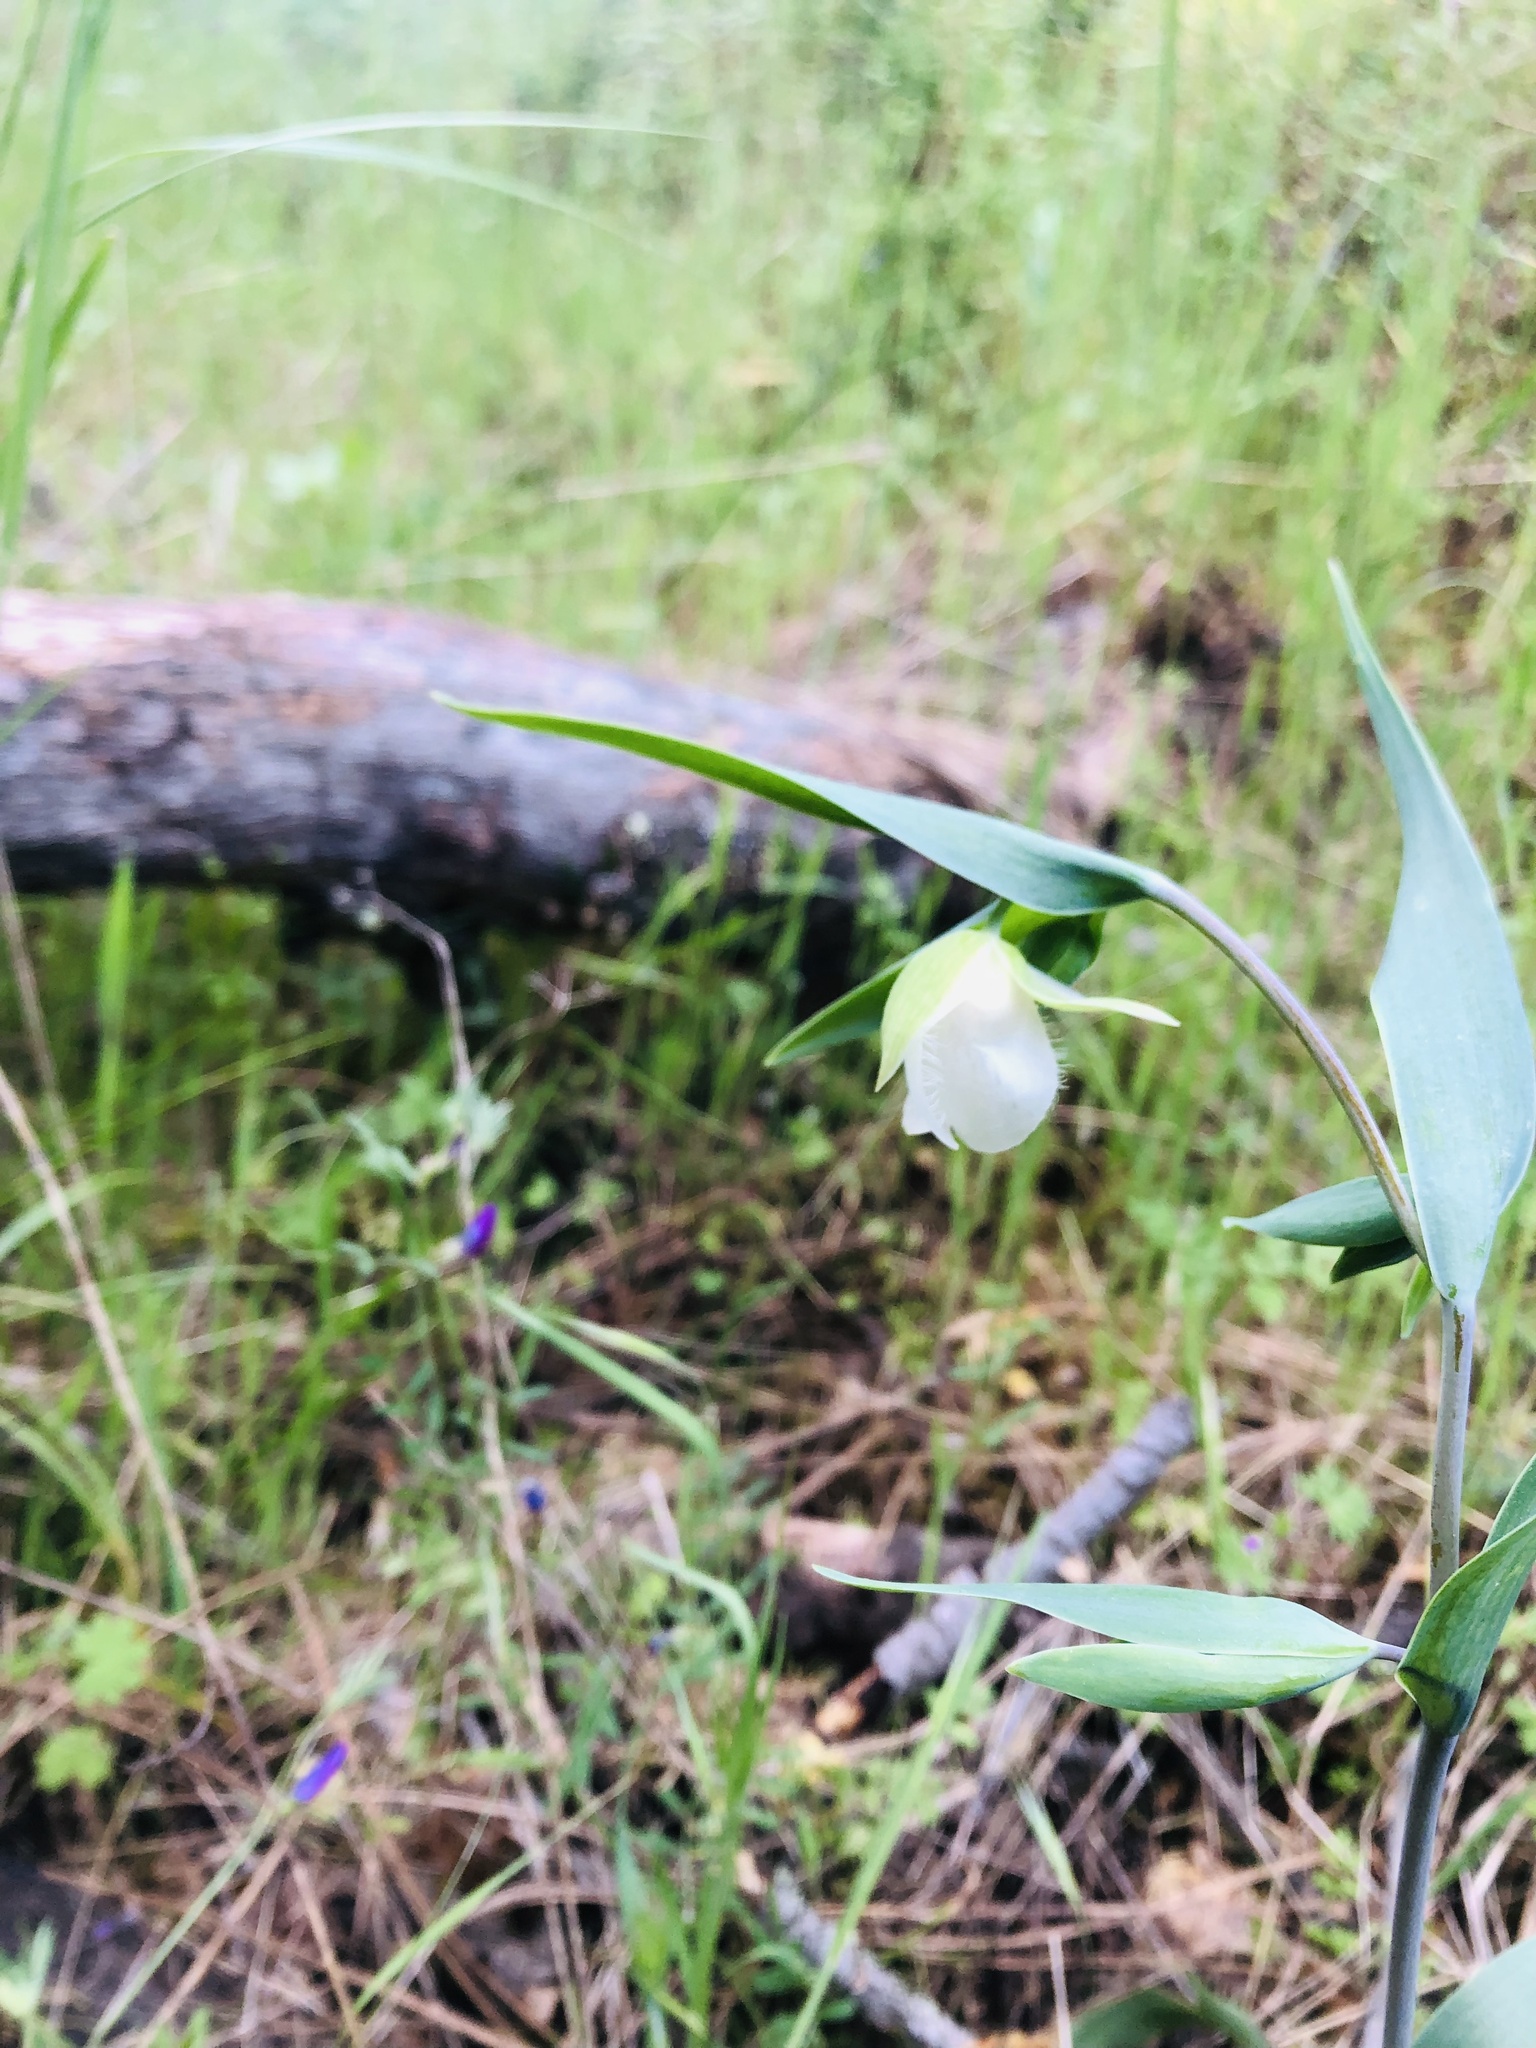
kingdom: Plantae
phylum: Tracheophyta
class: Liliopsida
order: Liliales
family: Liliaceae
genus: Calochortus
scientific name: Calochortus albus
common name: Fairy-lantern
